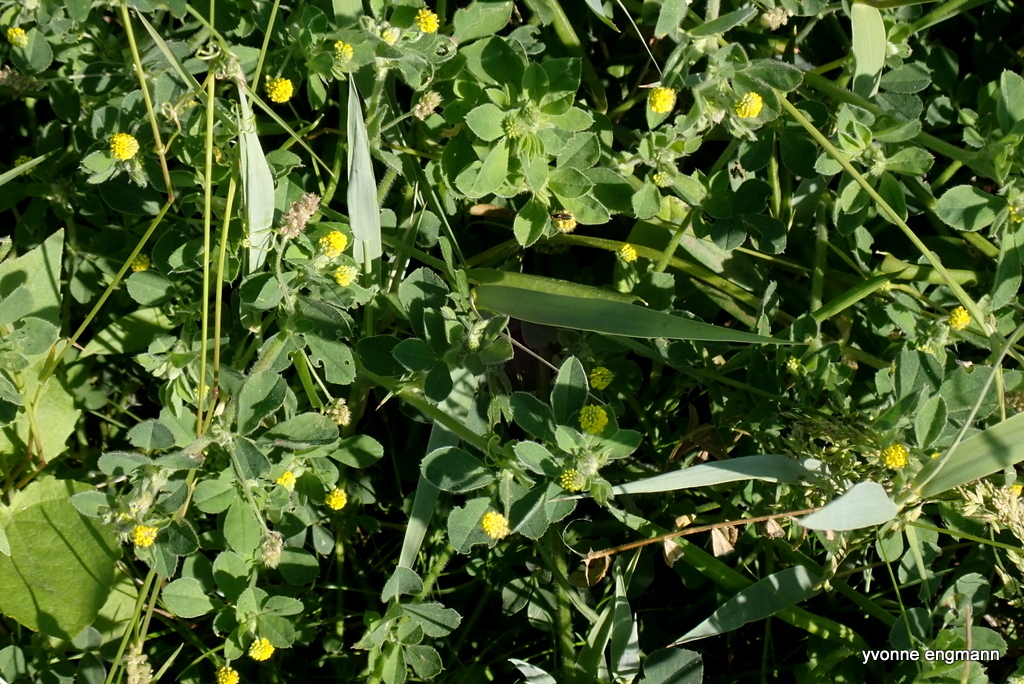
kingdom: Plantae
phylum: Tracheophyta
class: Magnoliopsida
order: Fabales
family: Fabaceae
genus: Medicago
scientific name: Medicago lupulina
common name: Black medick
